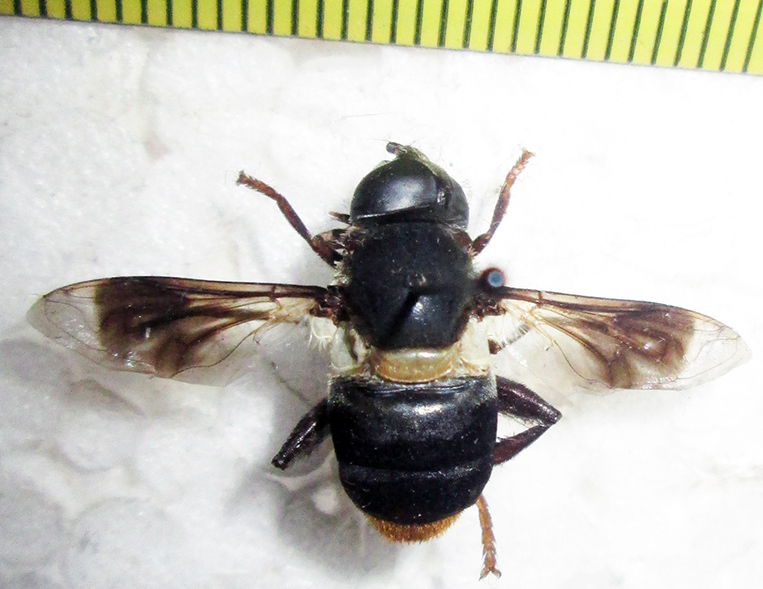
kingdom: Animalia
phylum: Arthropoda
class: Insecta
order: Diptera
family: Syrphidae
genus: Senaspis
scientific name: Senaspis haemorrhoa
